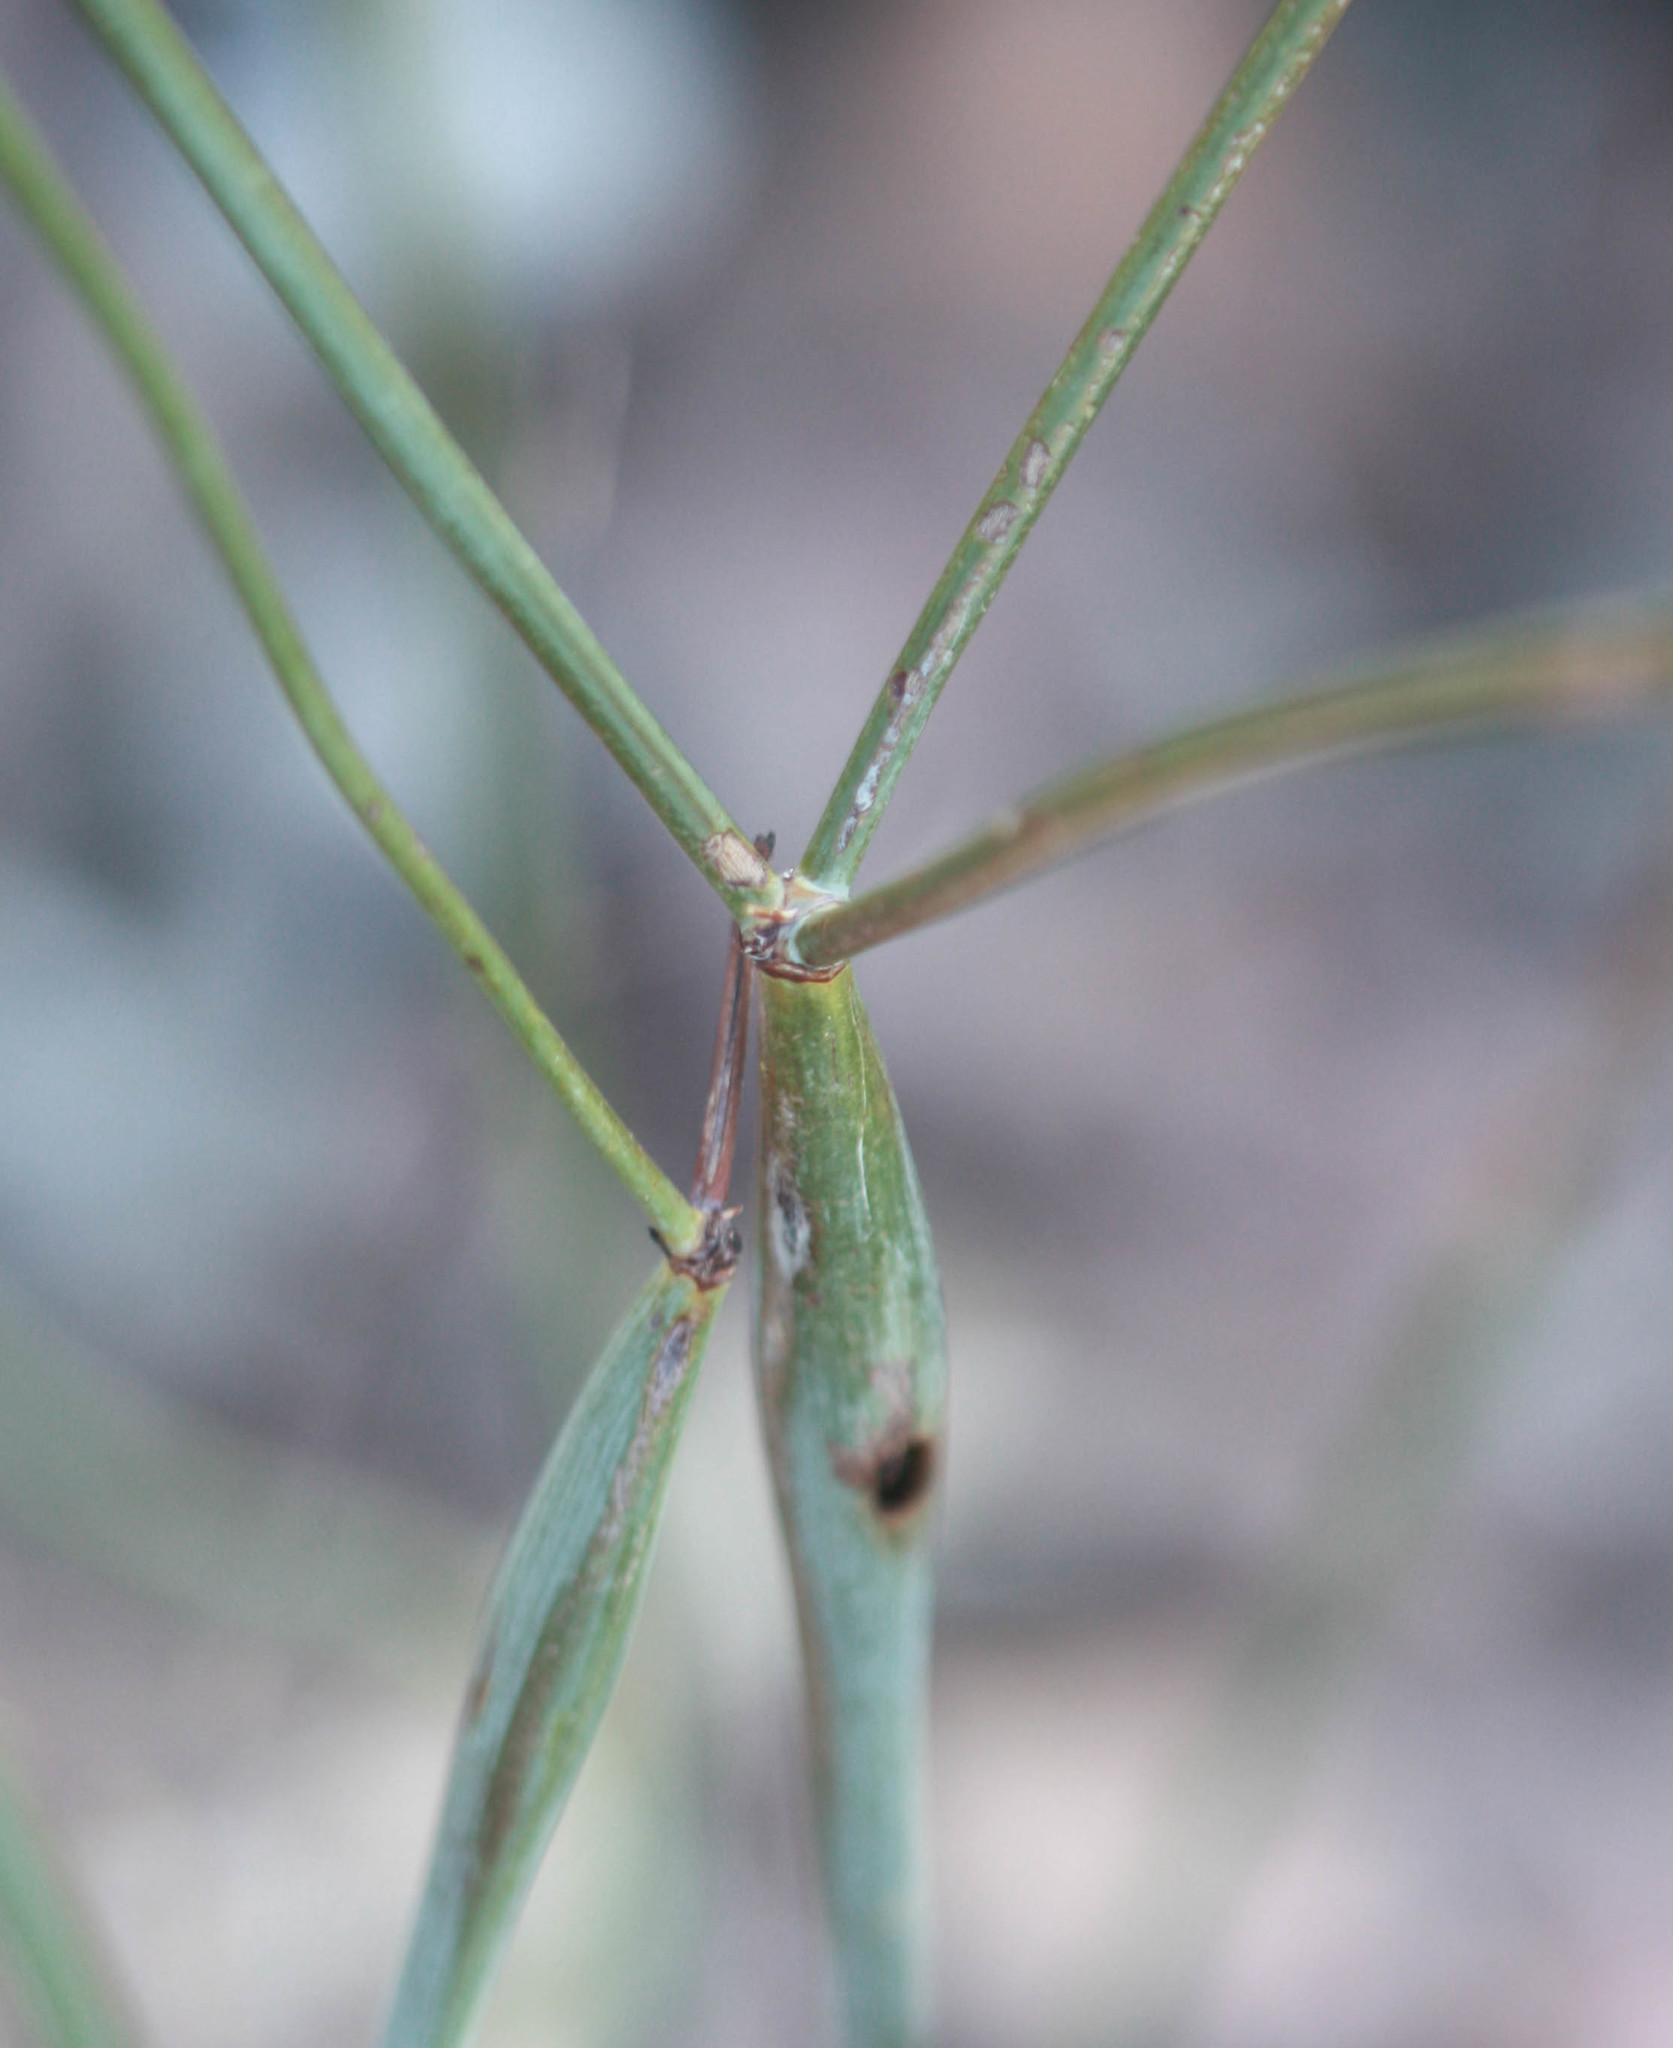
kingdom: Plantae
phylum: Tracheophyta
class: Magnoliopsida
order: Caryophyllales
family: Polygonaceae
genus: Eriogonum
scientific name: Eriogonum inflatum
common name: Desert trumpet
